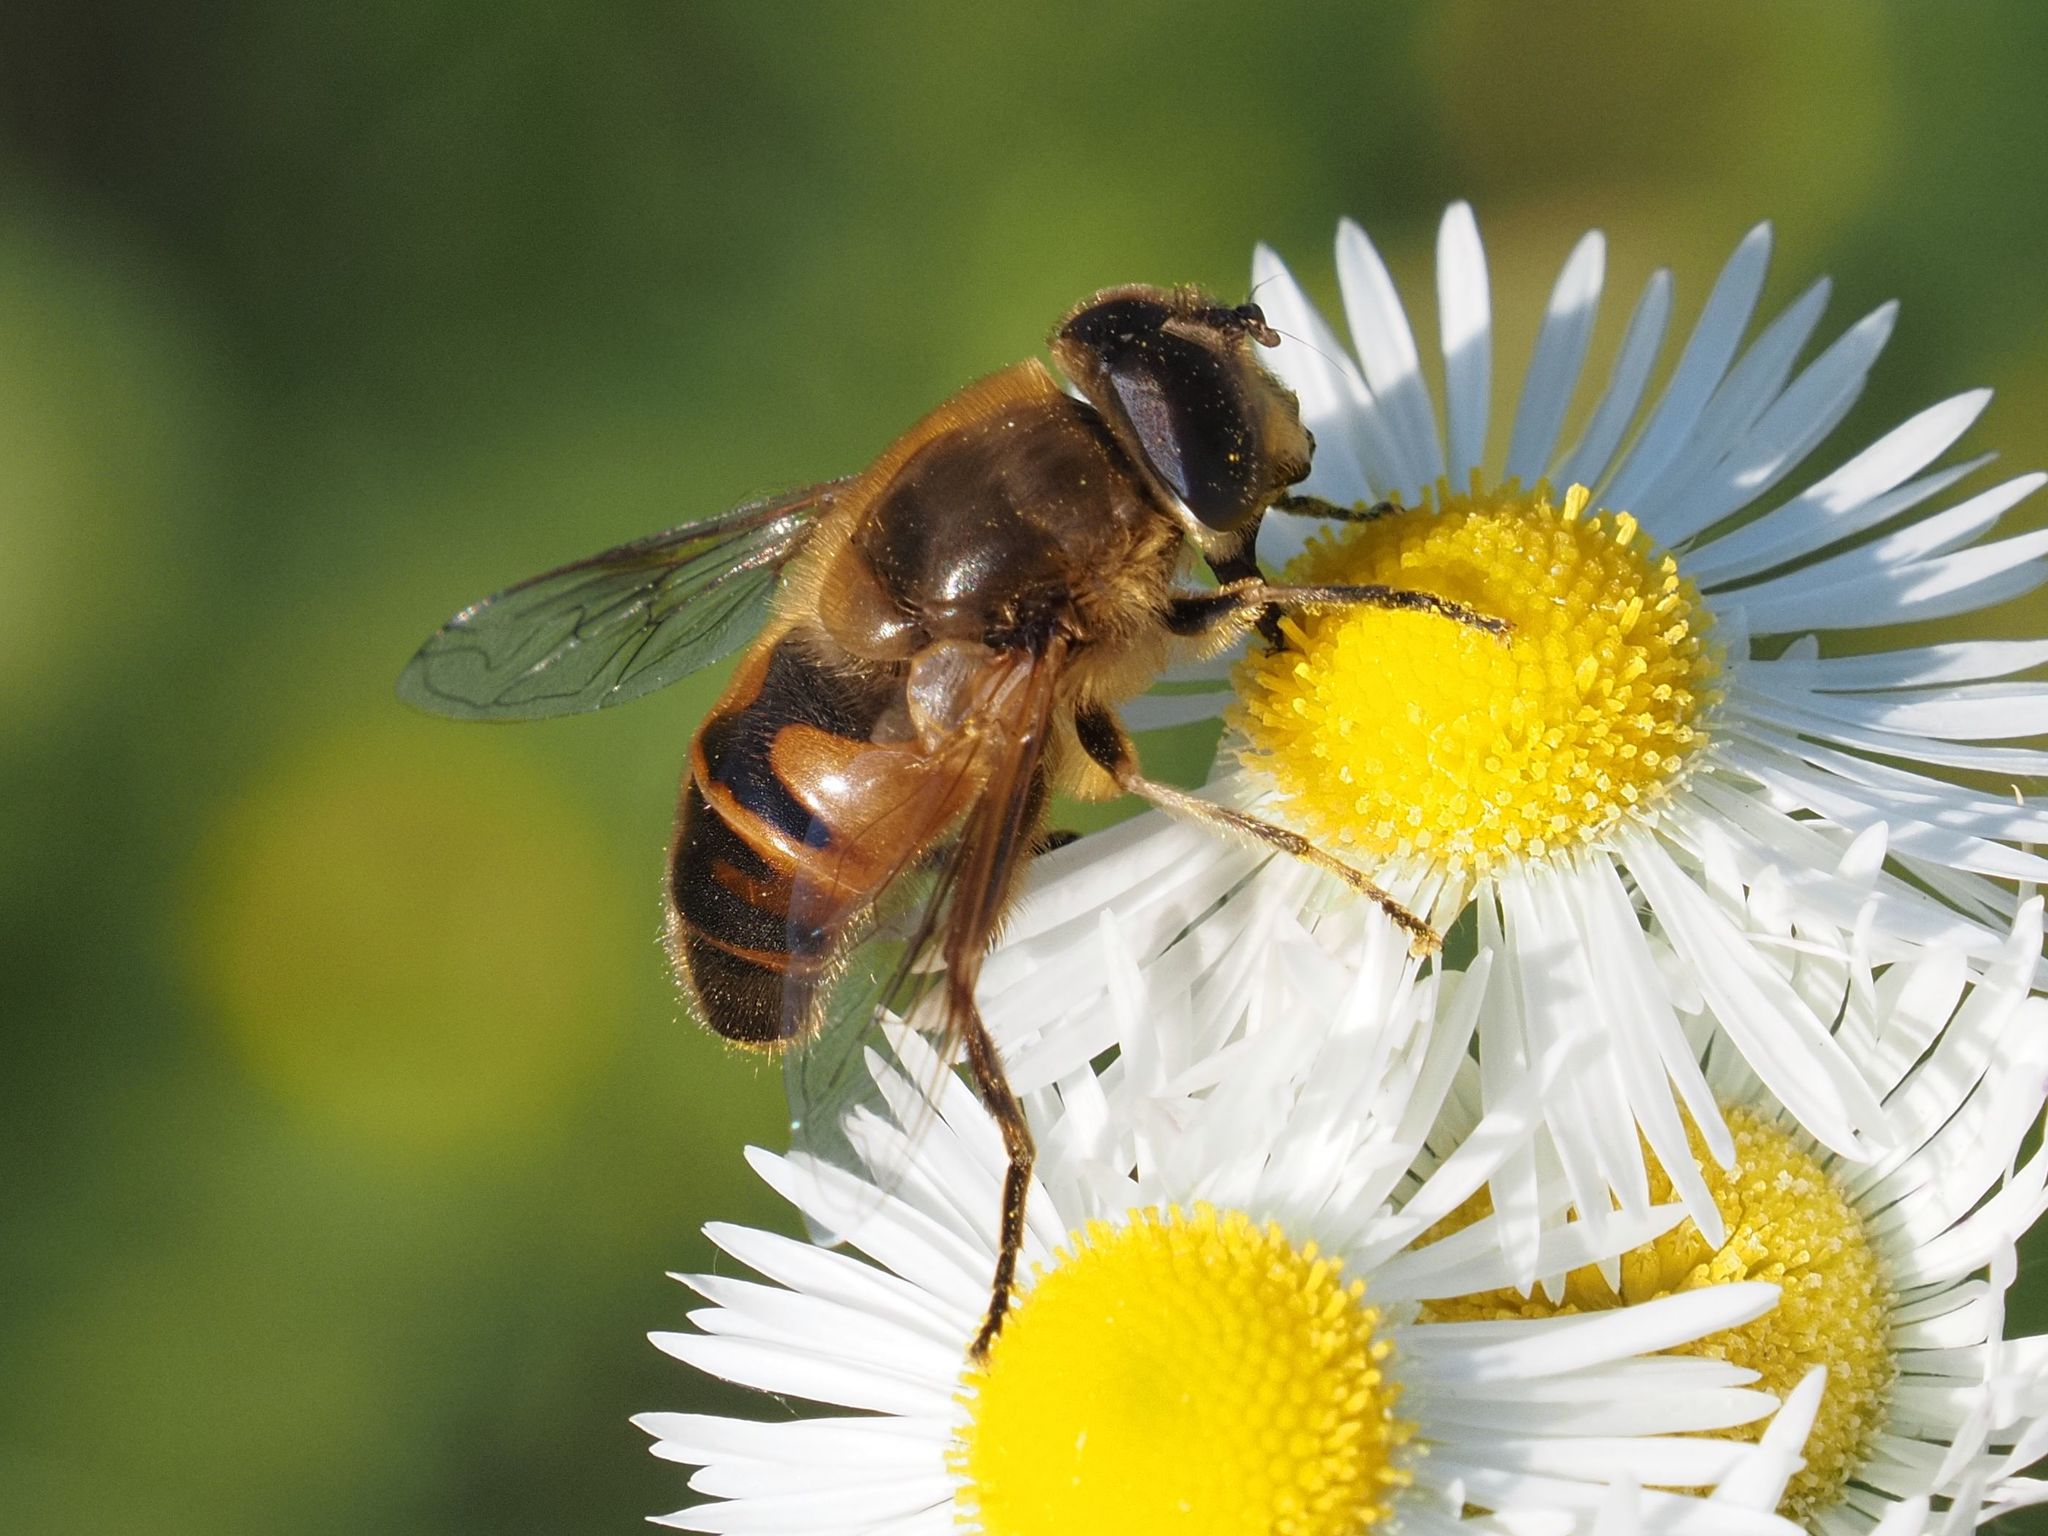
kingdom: Animalia
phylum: Arthropoda
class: Insecta
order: Diptera
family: Syrphidae
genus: Eristalis
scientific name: Eristalis tenax
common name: Drone fly
